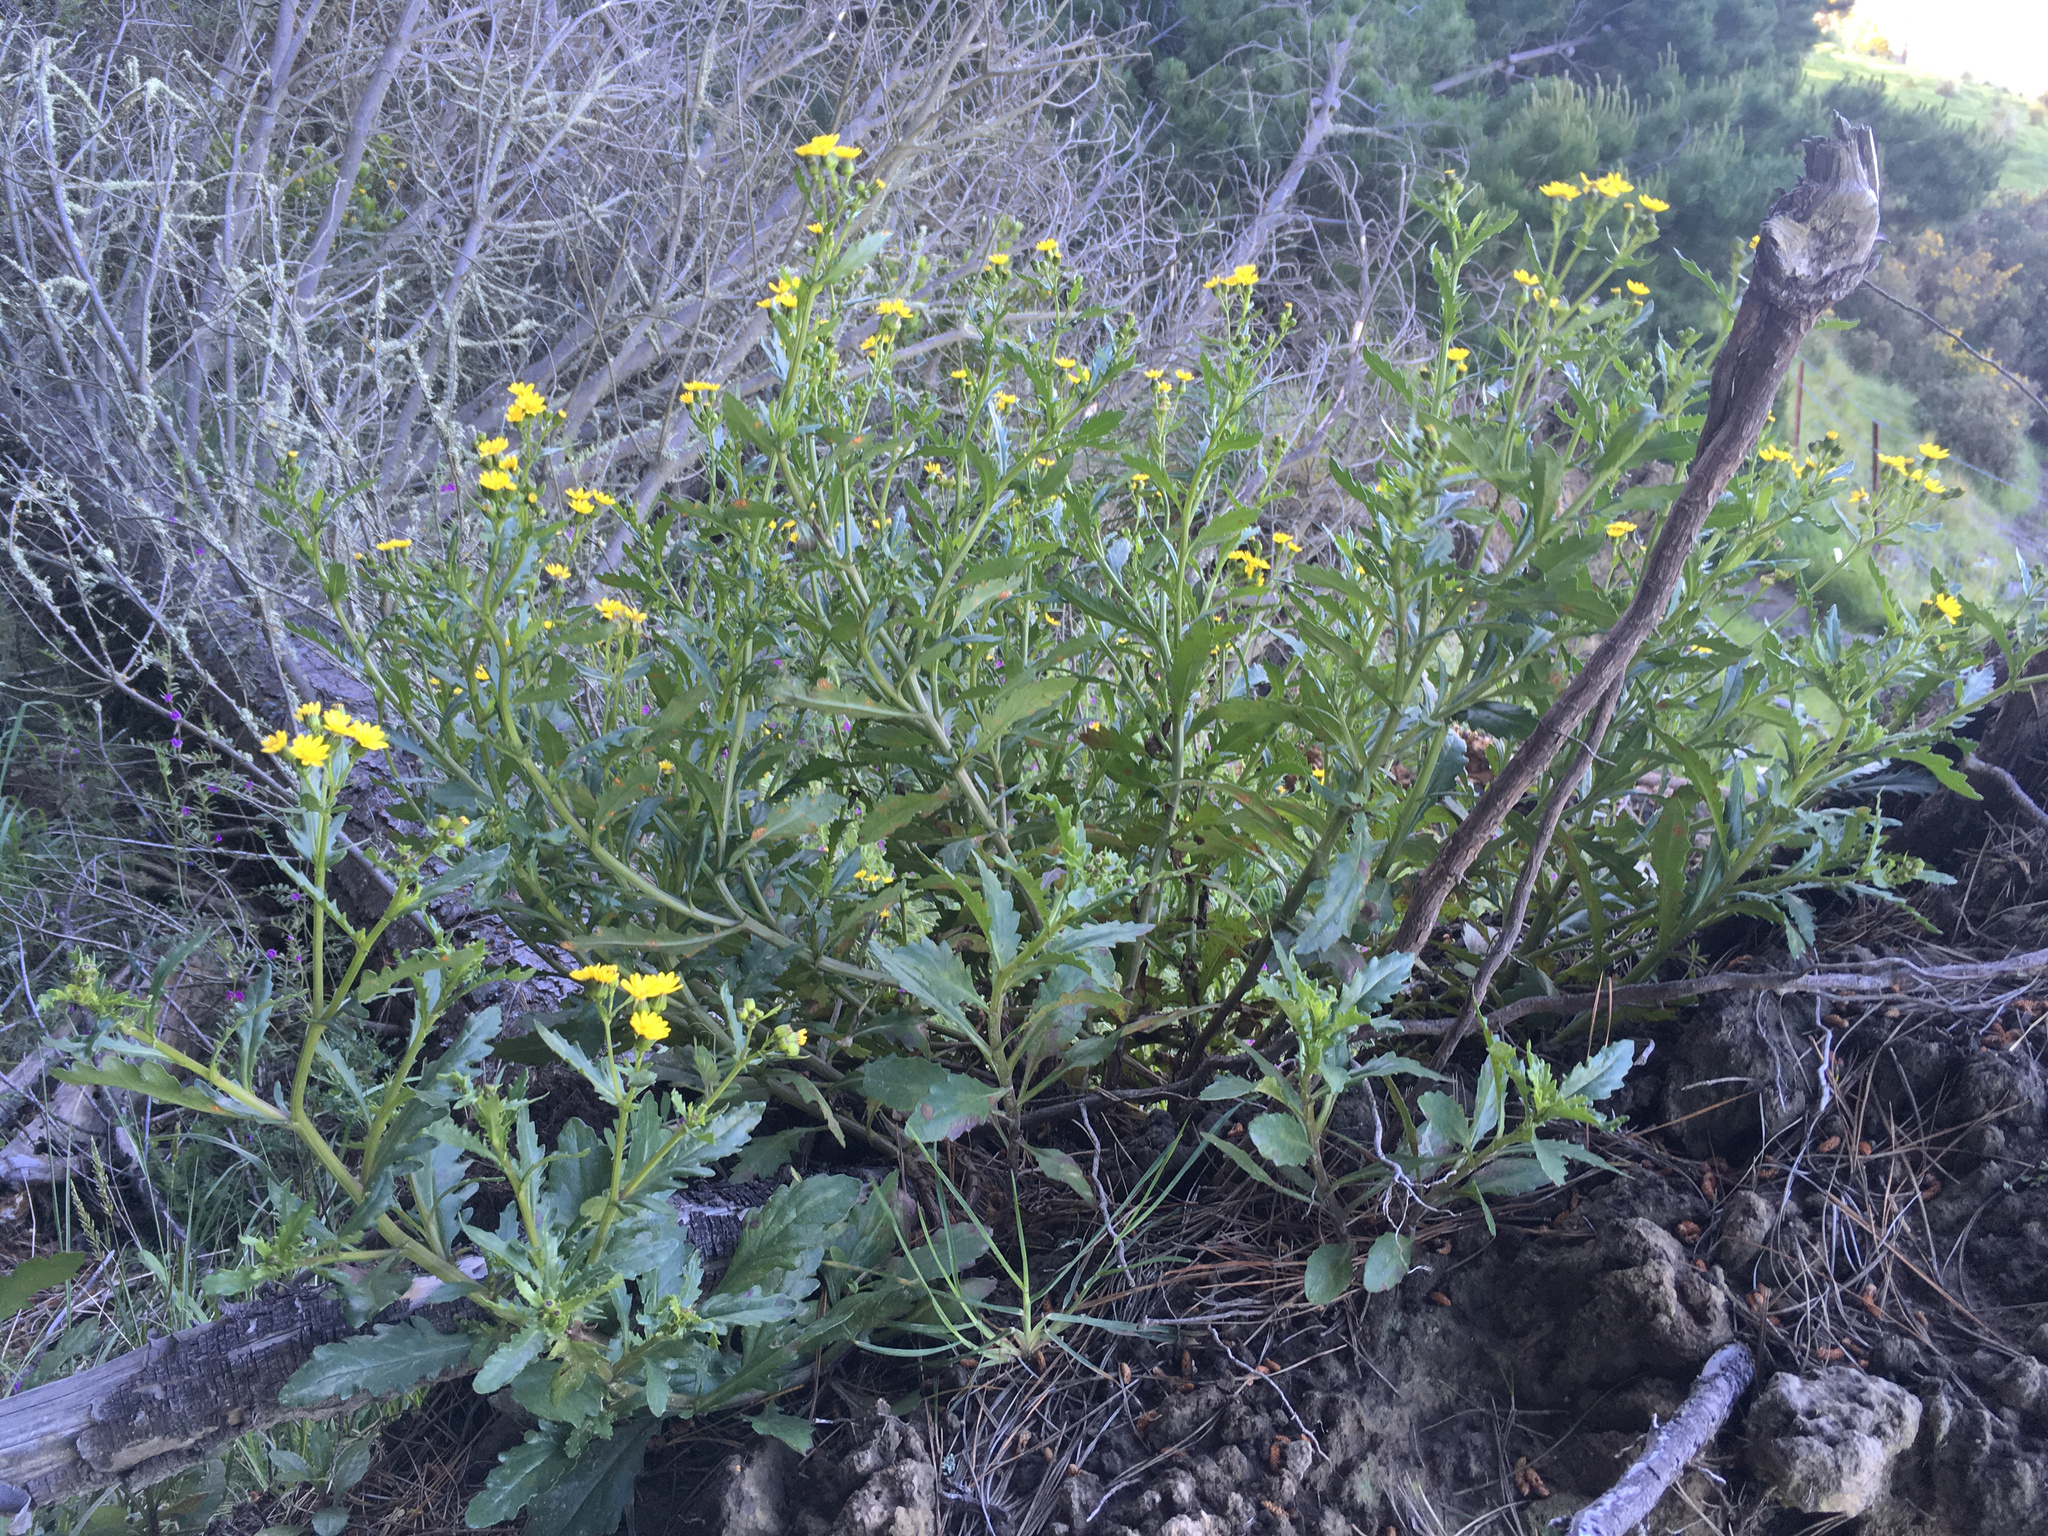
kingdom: Plantae
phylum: Tracheophyta
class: Magnoliopsida
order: Asterales
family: Asteraceae
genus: Senecio
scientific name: Senecio matatini
